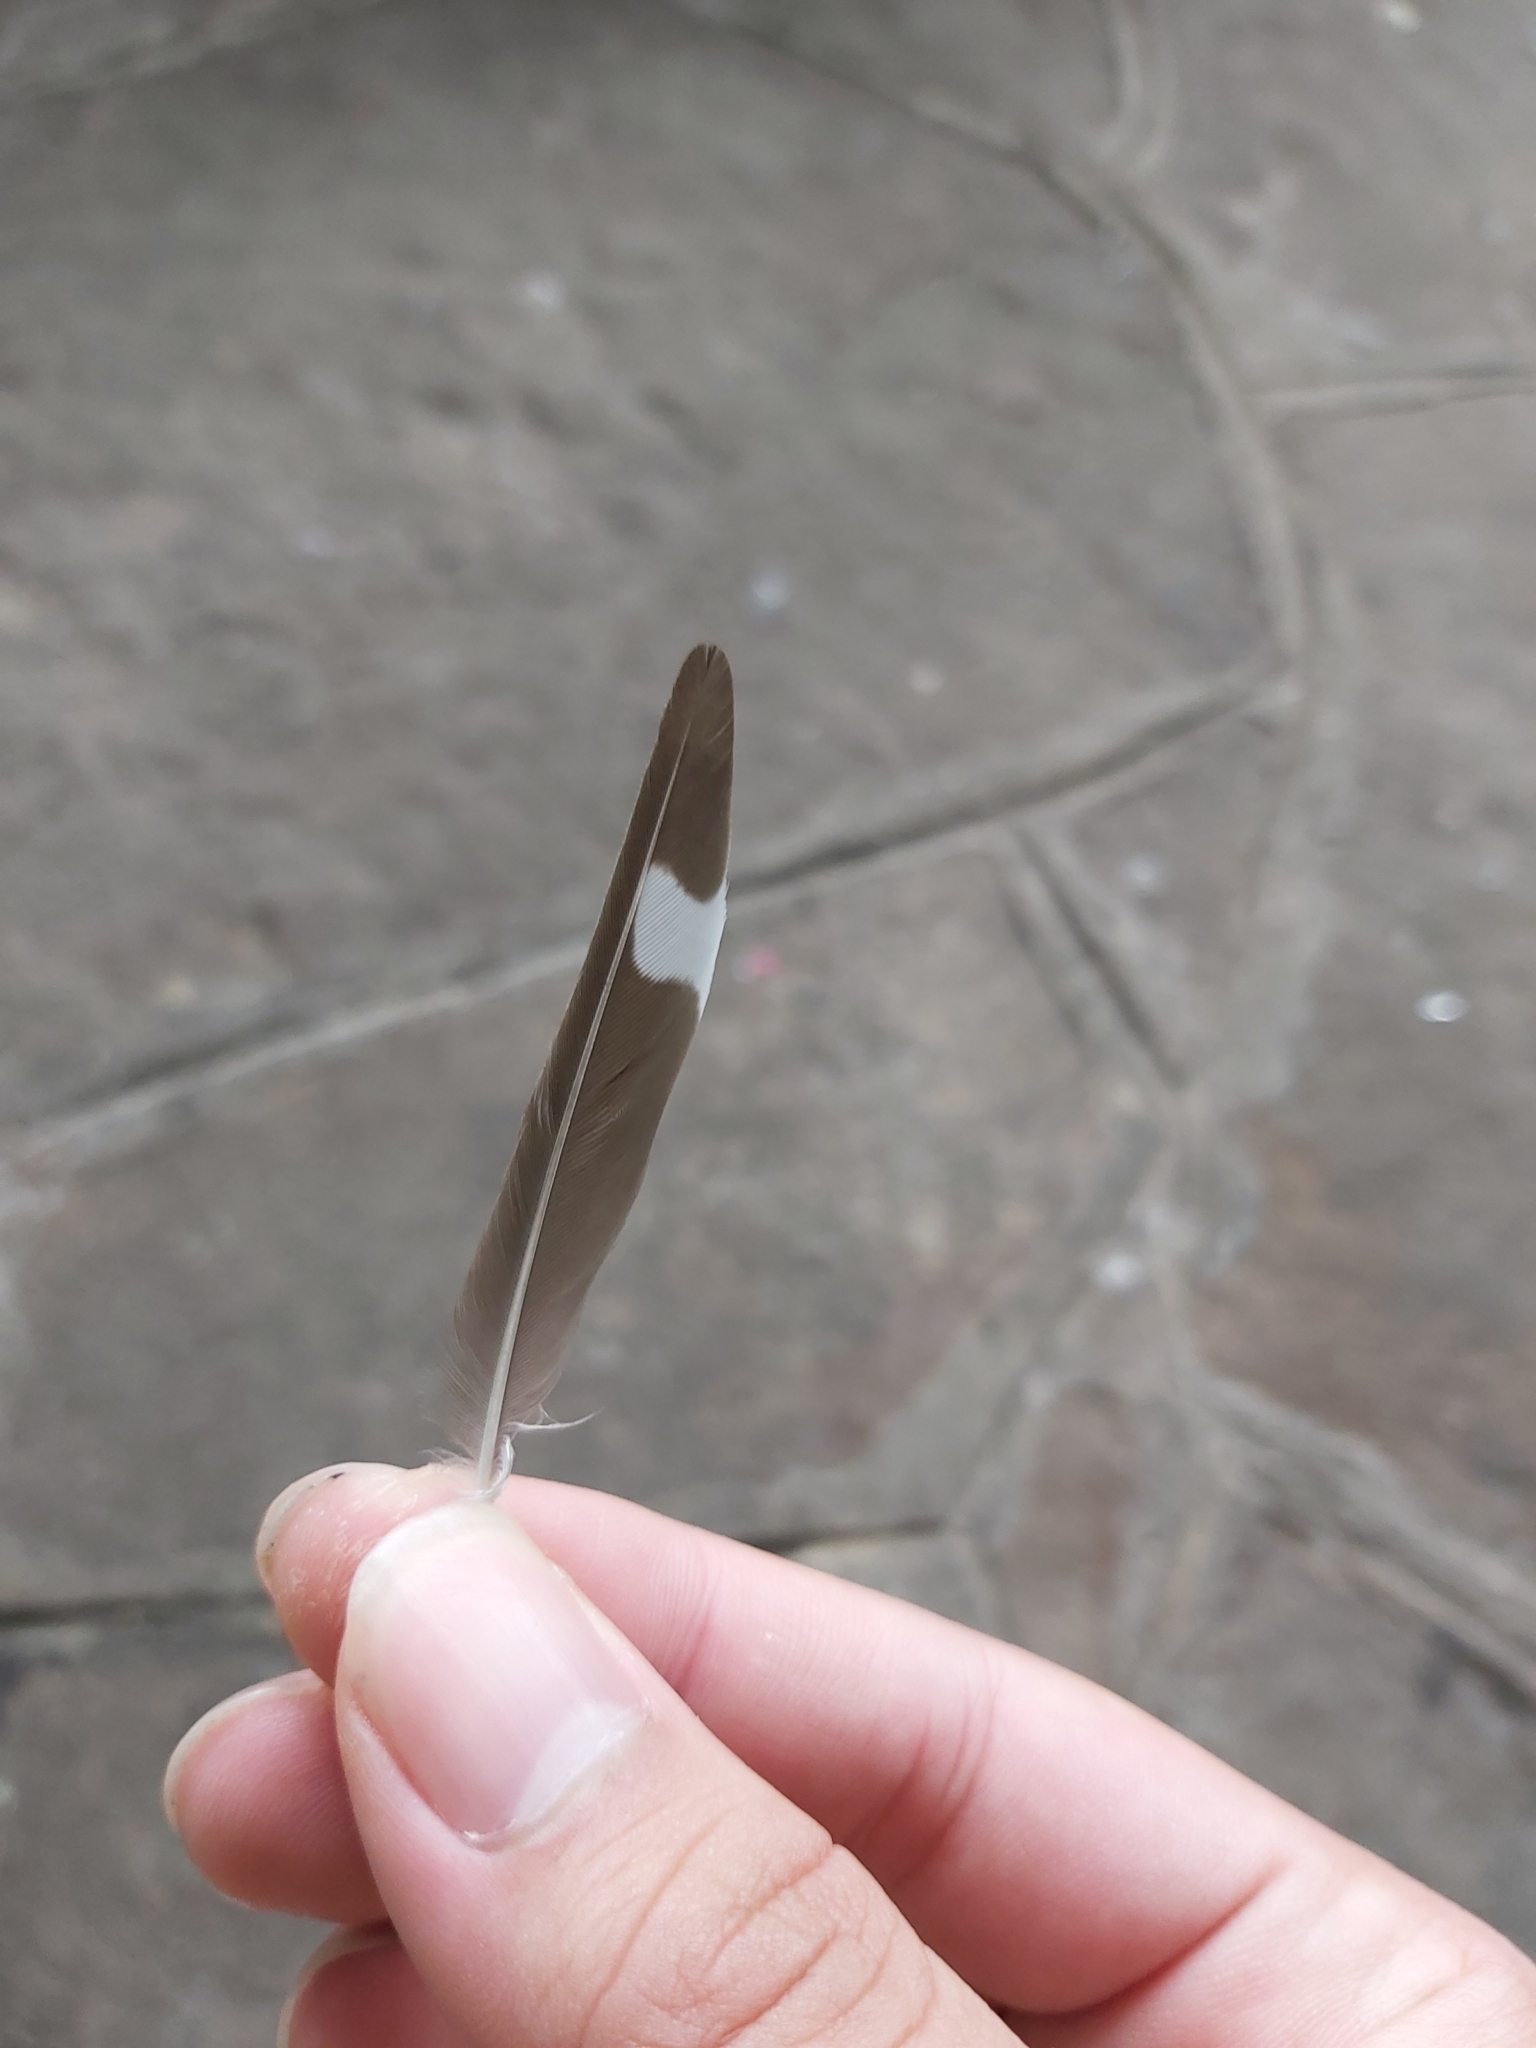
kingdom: Animalia
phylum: Chordata
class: Aves
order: Passeriformes
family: Hirundinidae
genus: Hirundo
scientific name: Hirundo neoxena
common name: Welcome swallow
